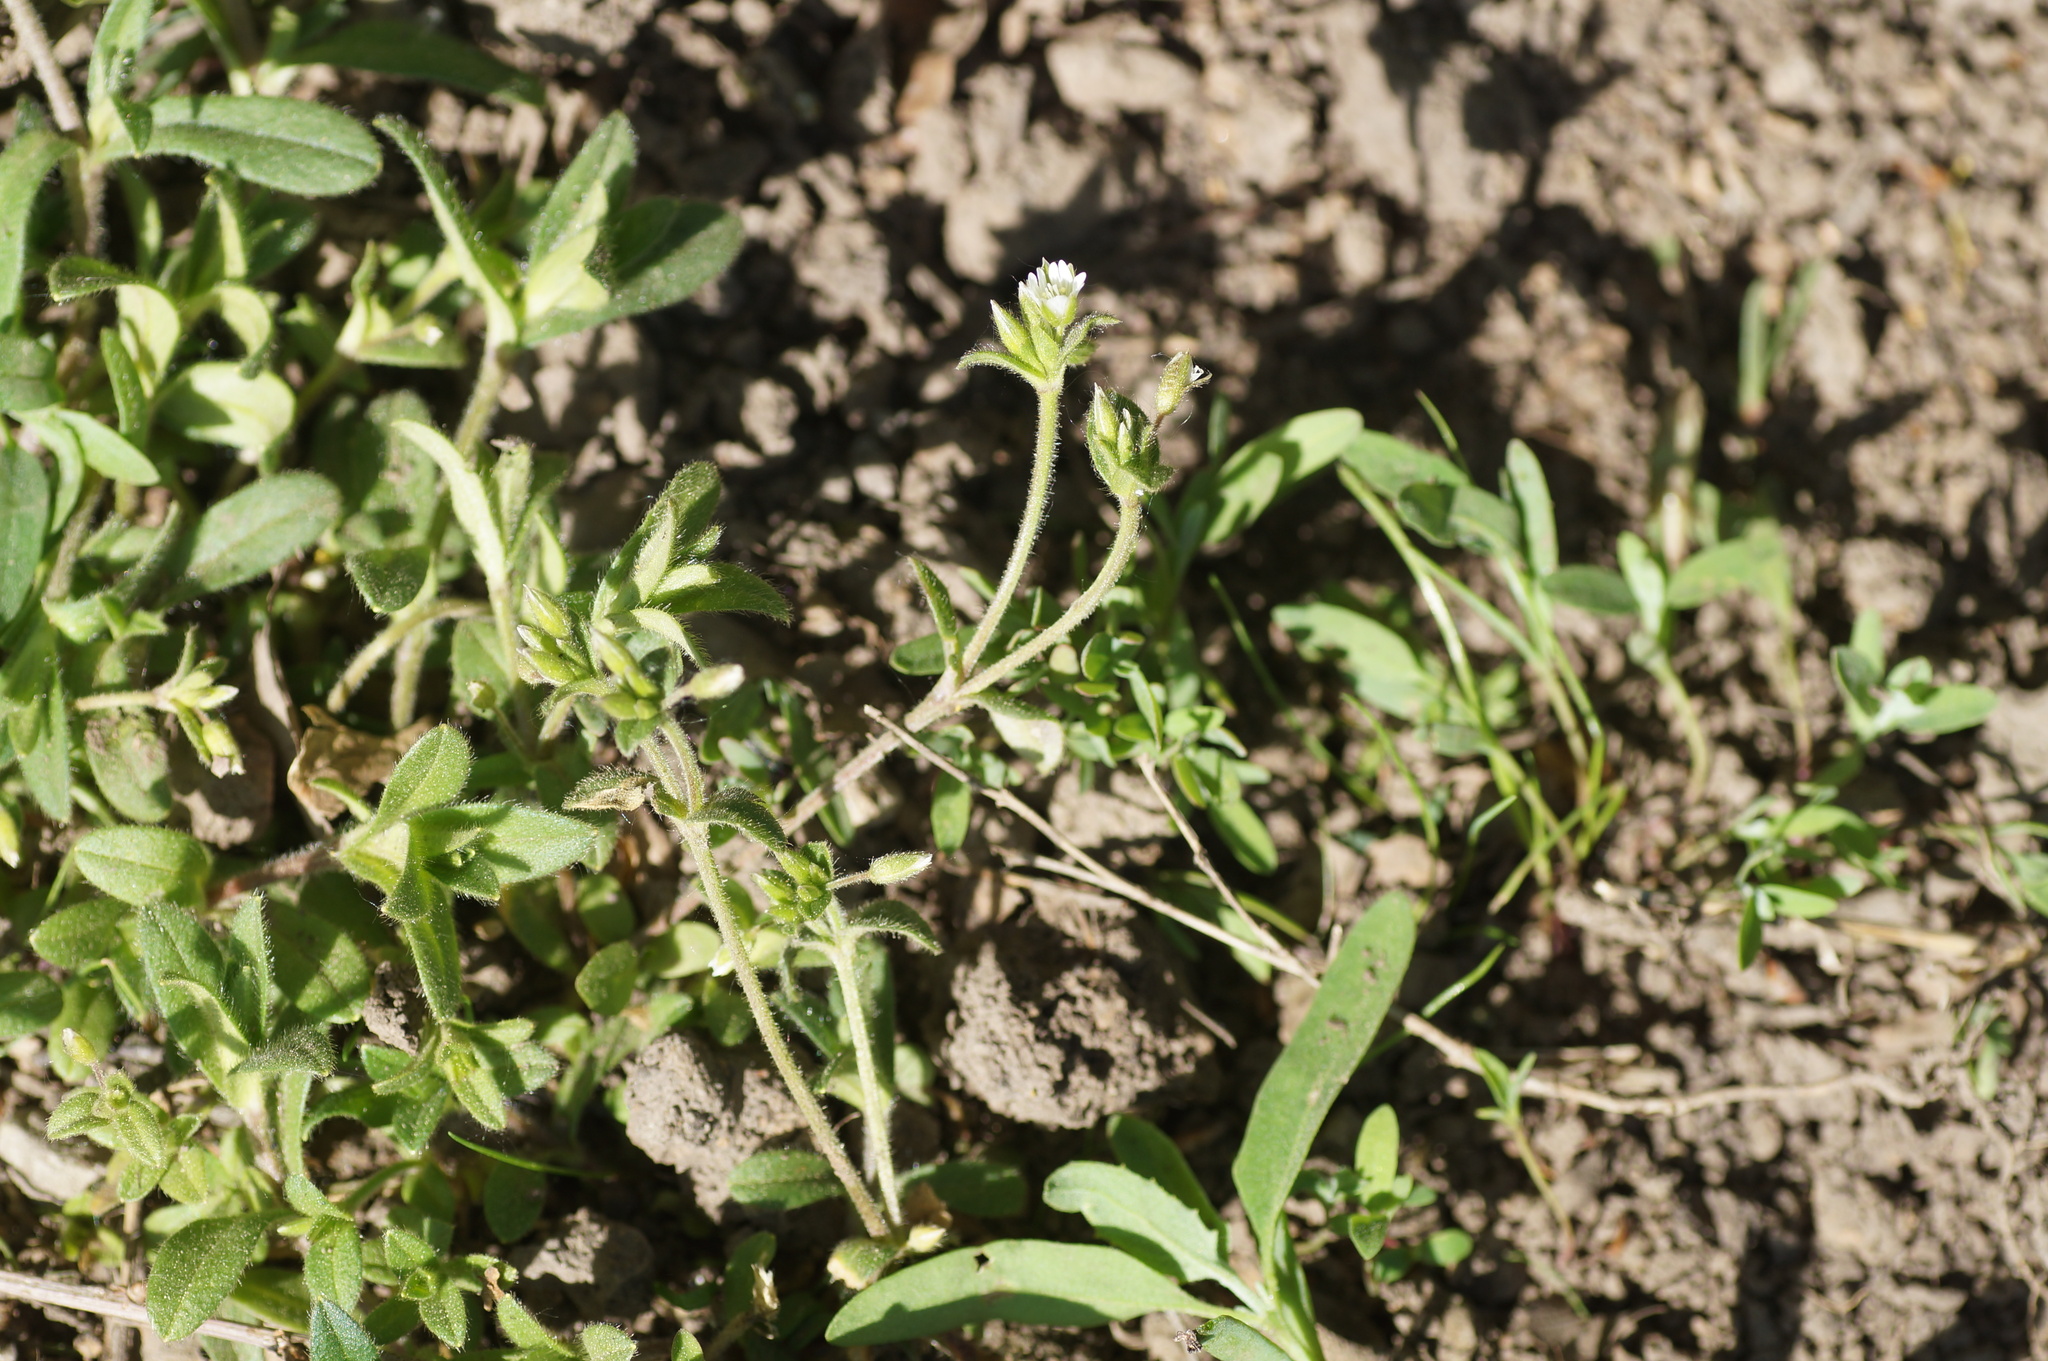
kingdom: Plantae
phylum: Tracheophyta
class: Magnoliopsida
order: Caryophyllales
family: Caryophyllaceae
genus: Cerastium
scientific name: Cerastium holosteoides
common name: Big chickweed
